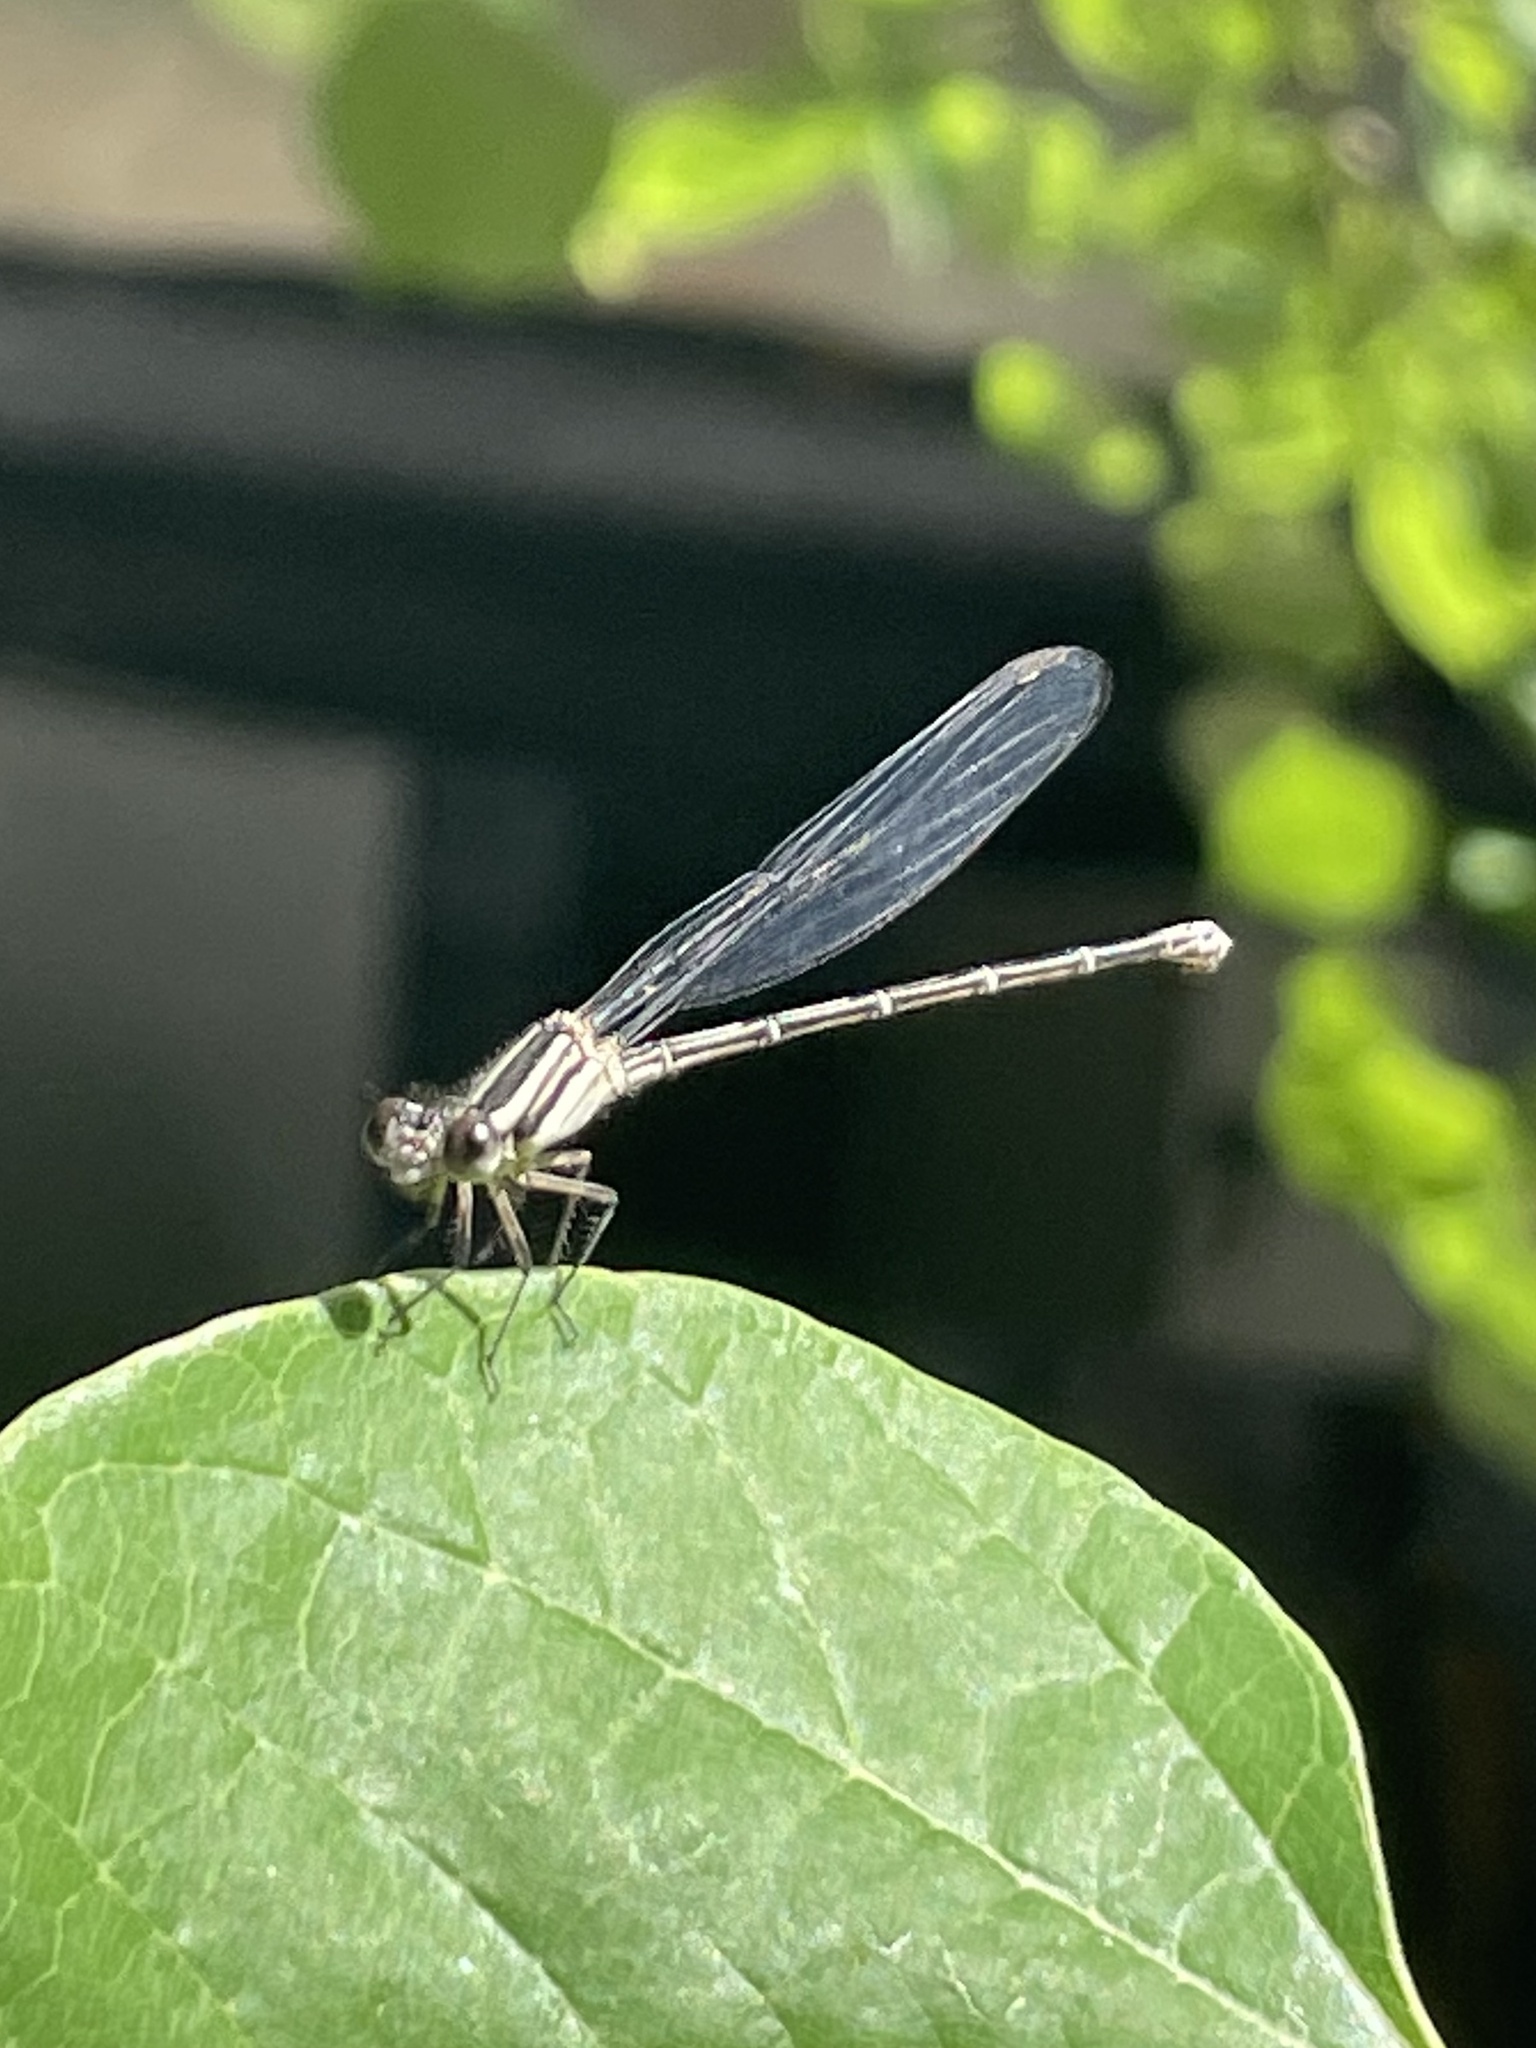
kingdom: Animalia
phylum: Arthropoda
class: Insecta
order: Odonata
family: Coenagrionidae
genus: Argia
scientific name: Argia translata
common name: Dusky dancer
